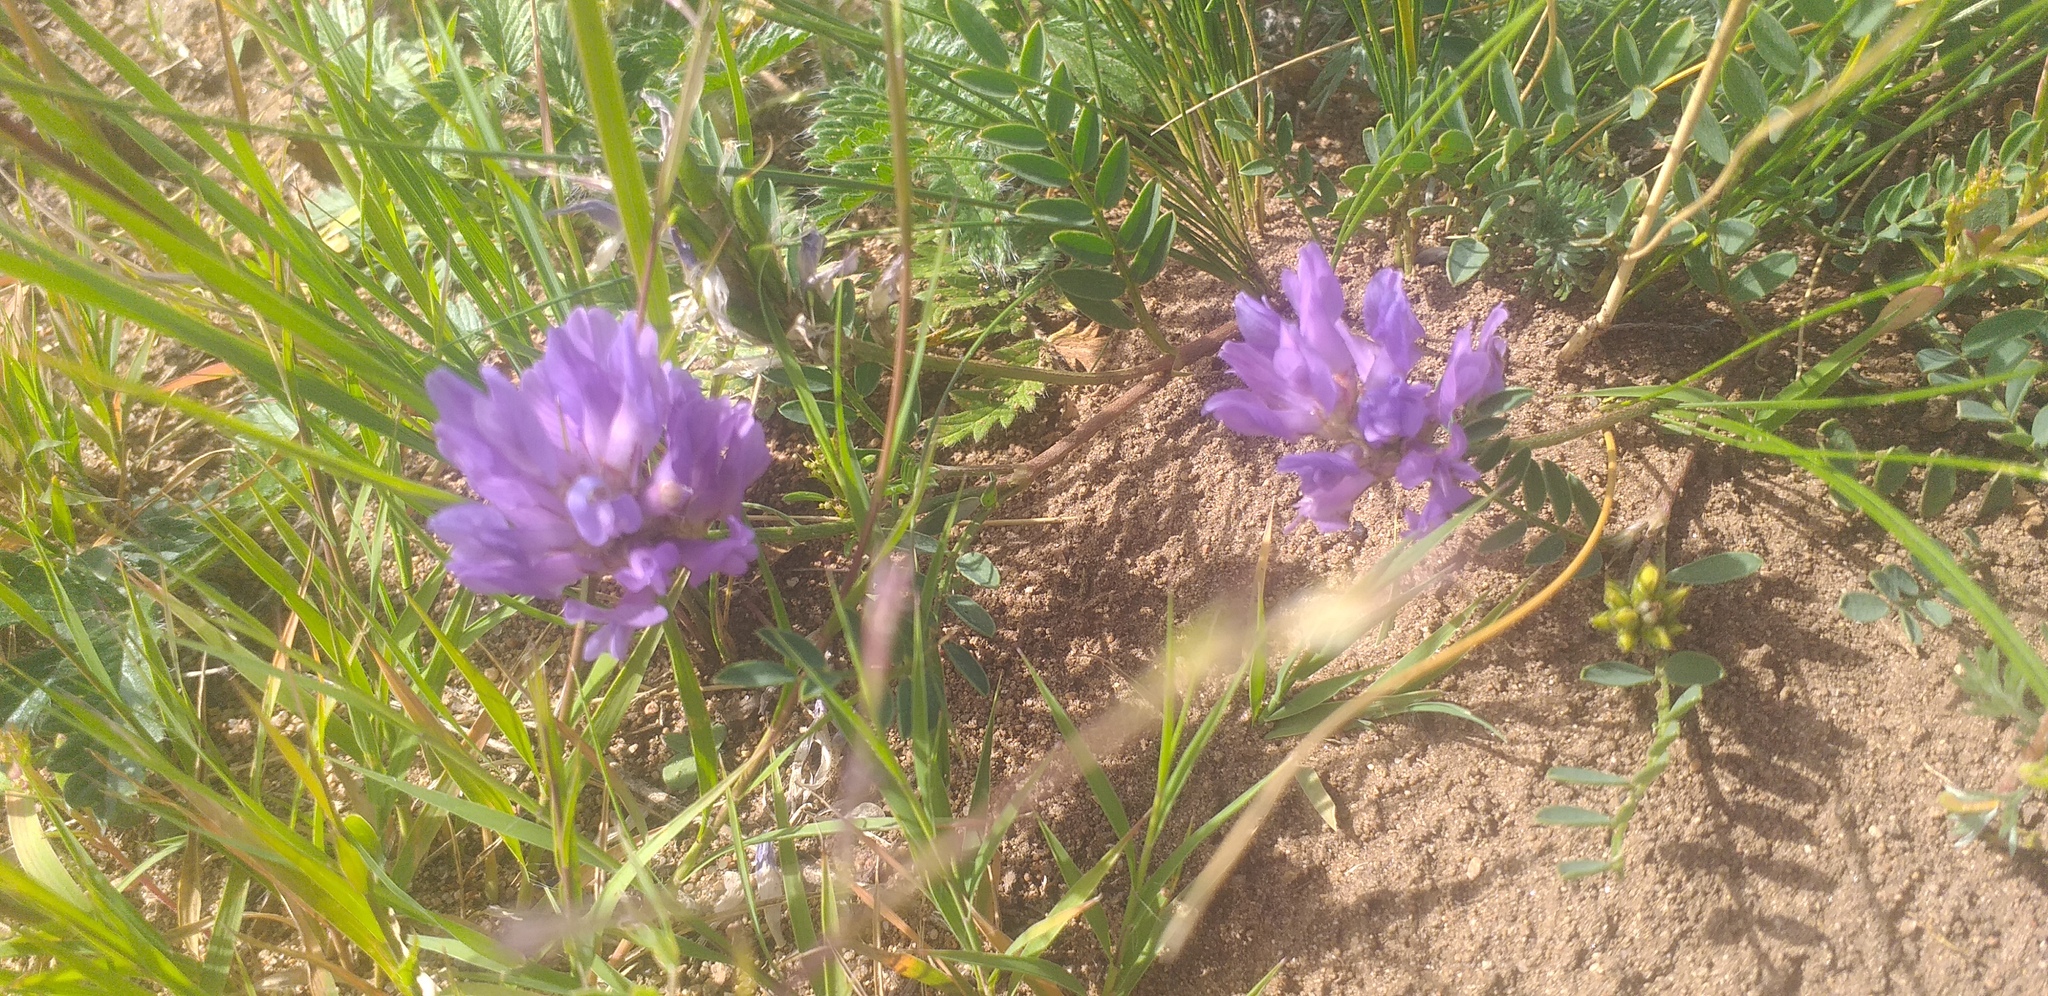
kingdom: Plantae
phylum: Tracheophyta
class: Magnoliopsida
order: Fabales
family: Fabaceae
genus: Astragalus
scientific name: Astragalus laxmannii
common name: Laxmann's milk-vetch
